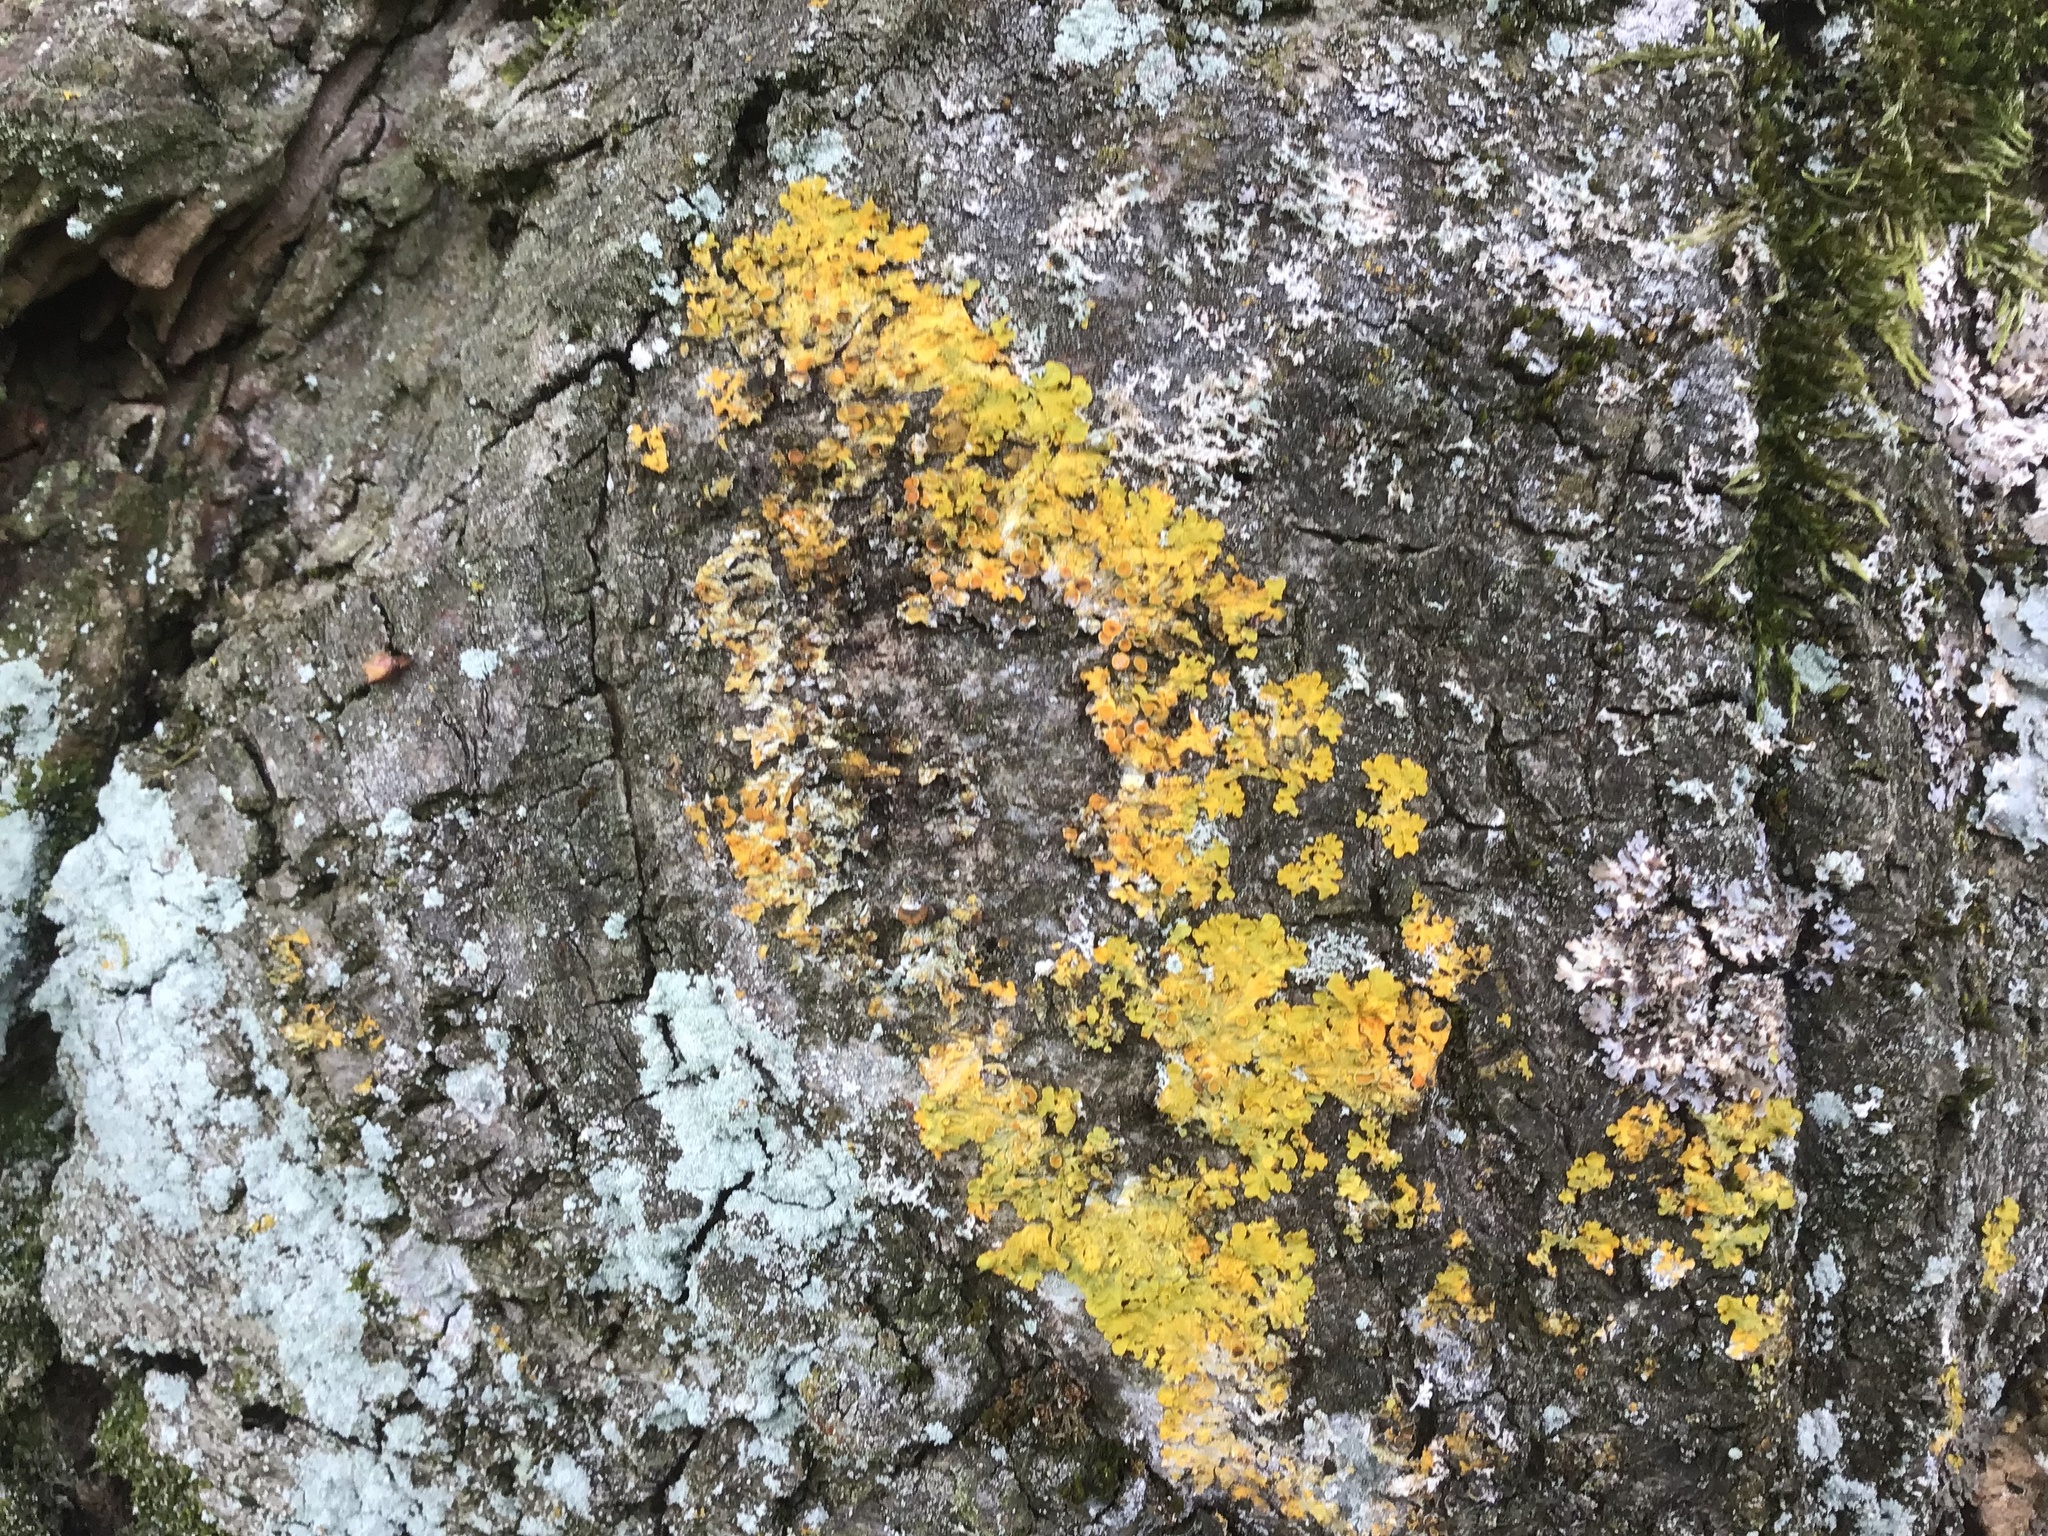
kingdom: Fungi
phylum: Ascomycota
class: Lecanoromycetes
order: Teloschistales
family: Teloschistaceae
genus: Xanthoria
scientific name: Xanthoria parietina
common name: Common orange lichen
